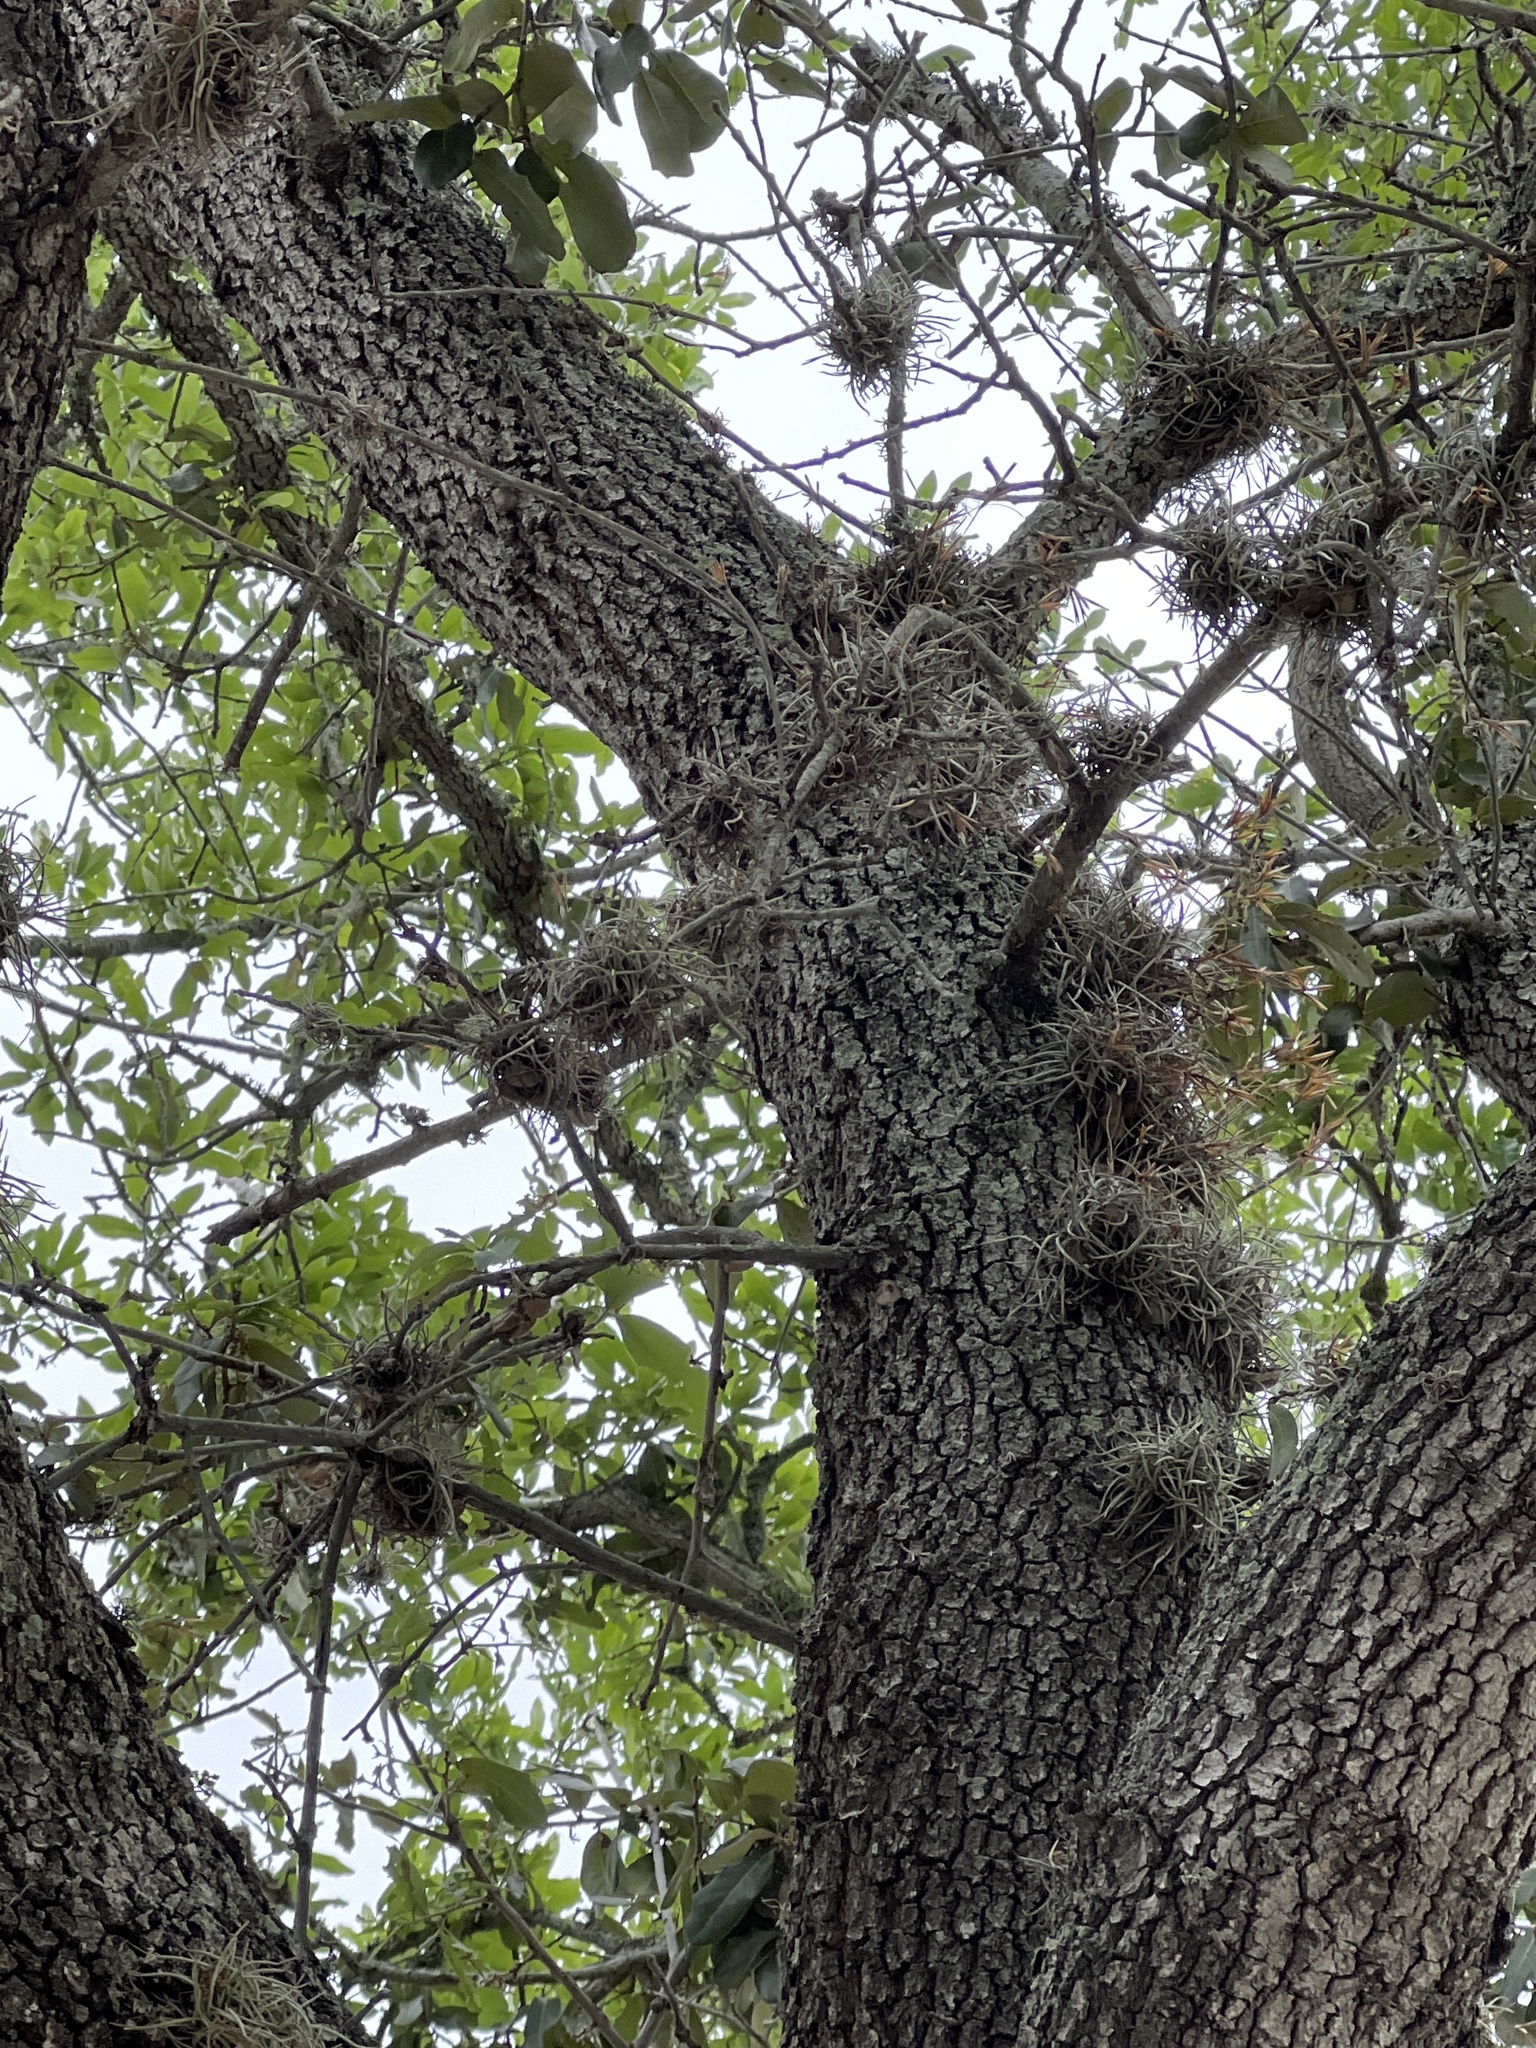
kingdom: Plantae
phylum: Tracheophyta
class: Liliopsida
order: Poales
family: Bromeliaceae
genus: Tillandsia
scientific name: Tillandsia recurvata
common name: Small ballmoss
